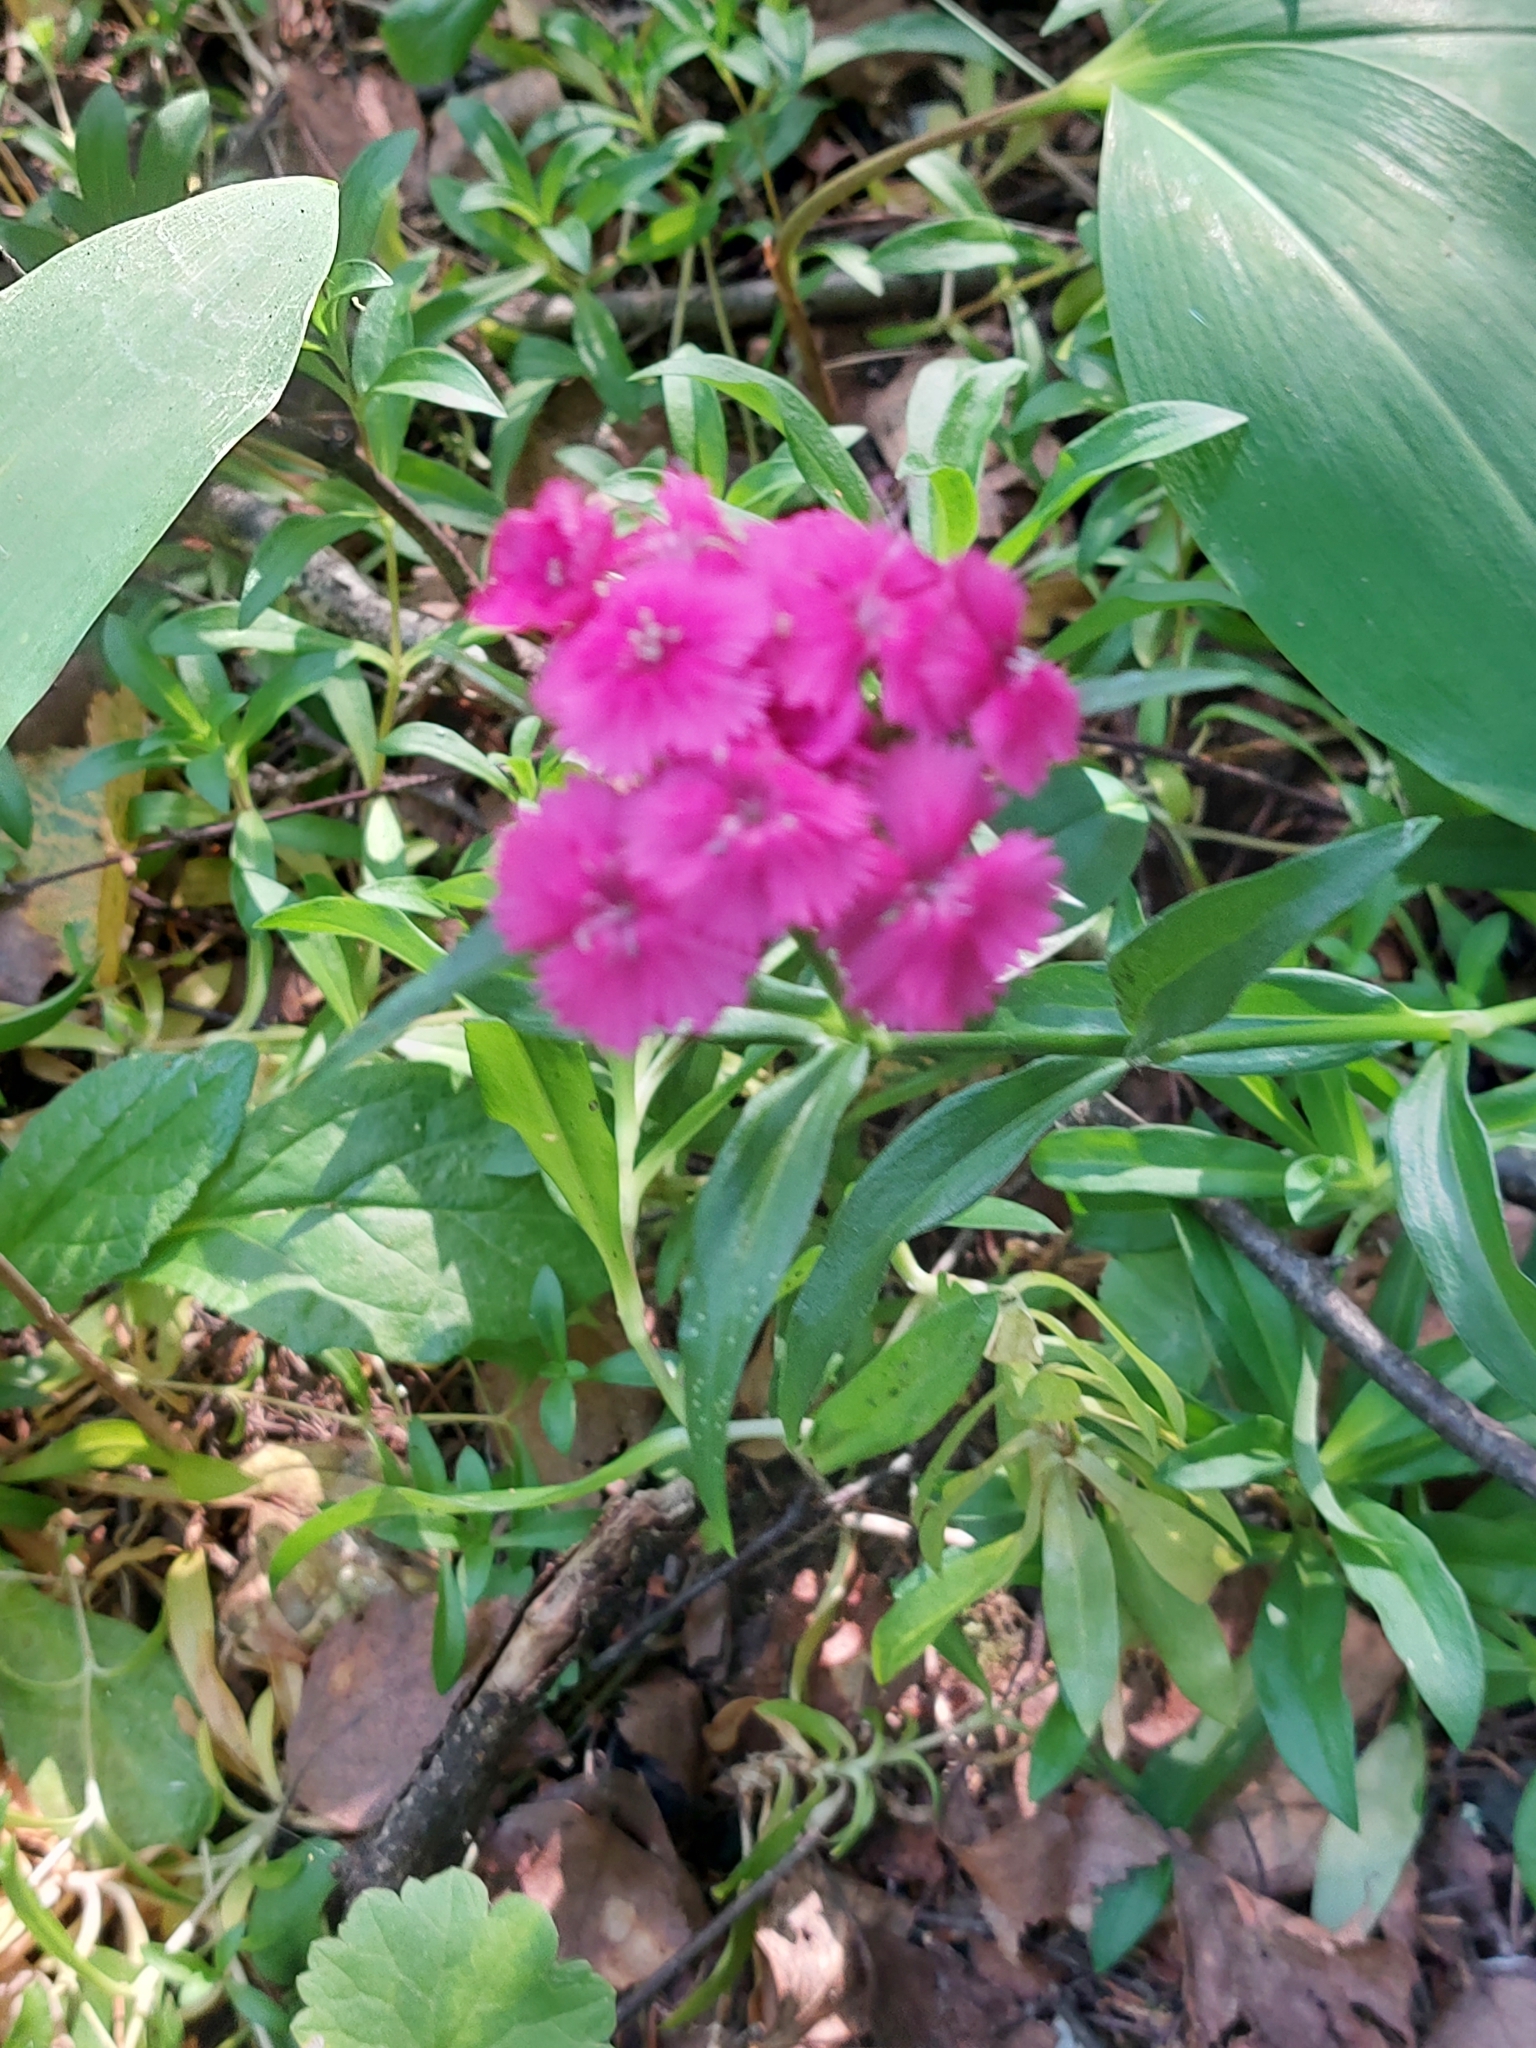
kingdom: Plantae
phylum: Tracheophyta
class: Magnoliopsida
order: Caryophyllales
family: Caryophyllaceae
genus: Dianthus
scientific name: Dianthus barbatus
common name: Sweet-william
